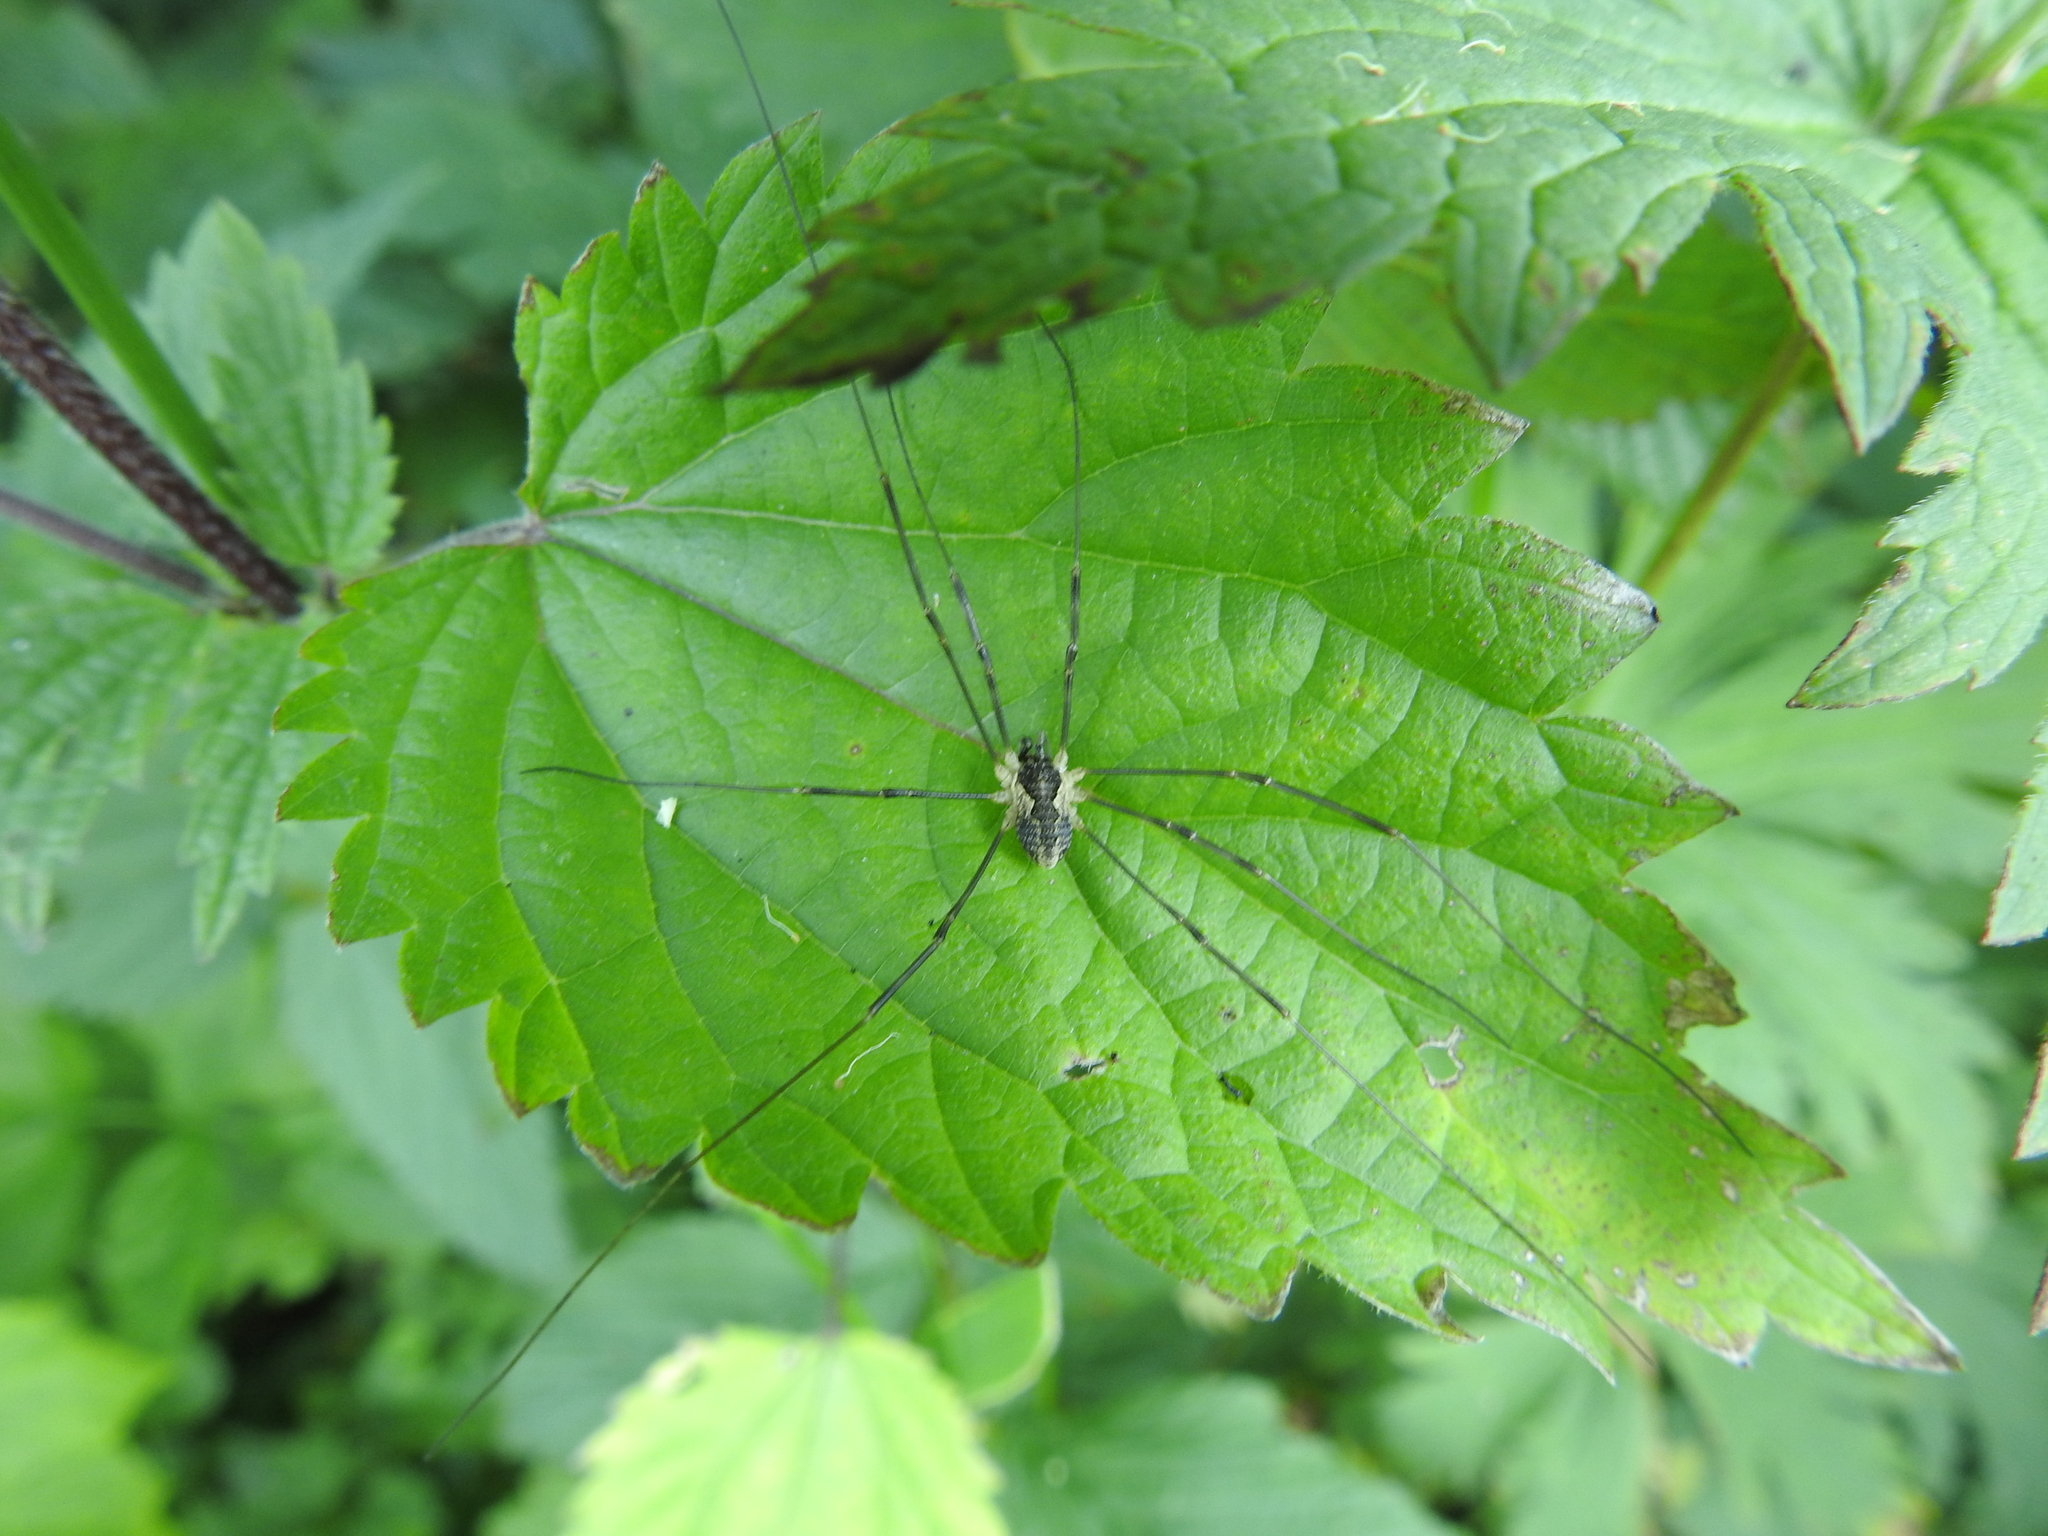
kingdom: Animalia
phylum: Arthropoda
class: Arachnida
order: Opiliones
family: Phalangiidae
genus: Mitopus
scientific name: Mitopus morio
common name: Saddleback harvestman
